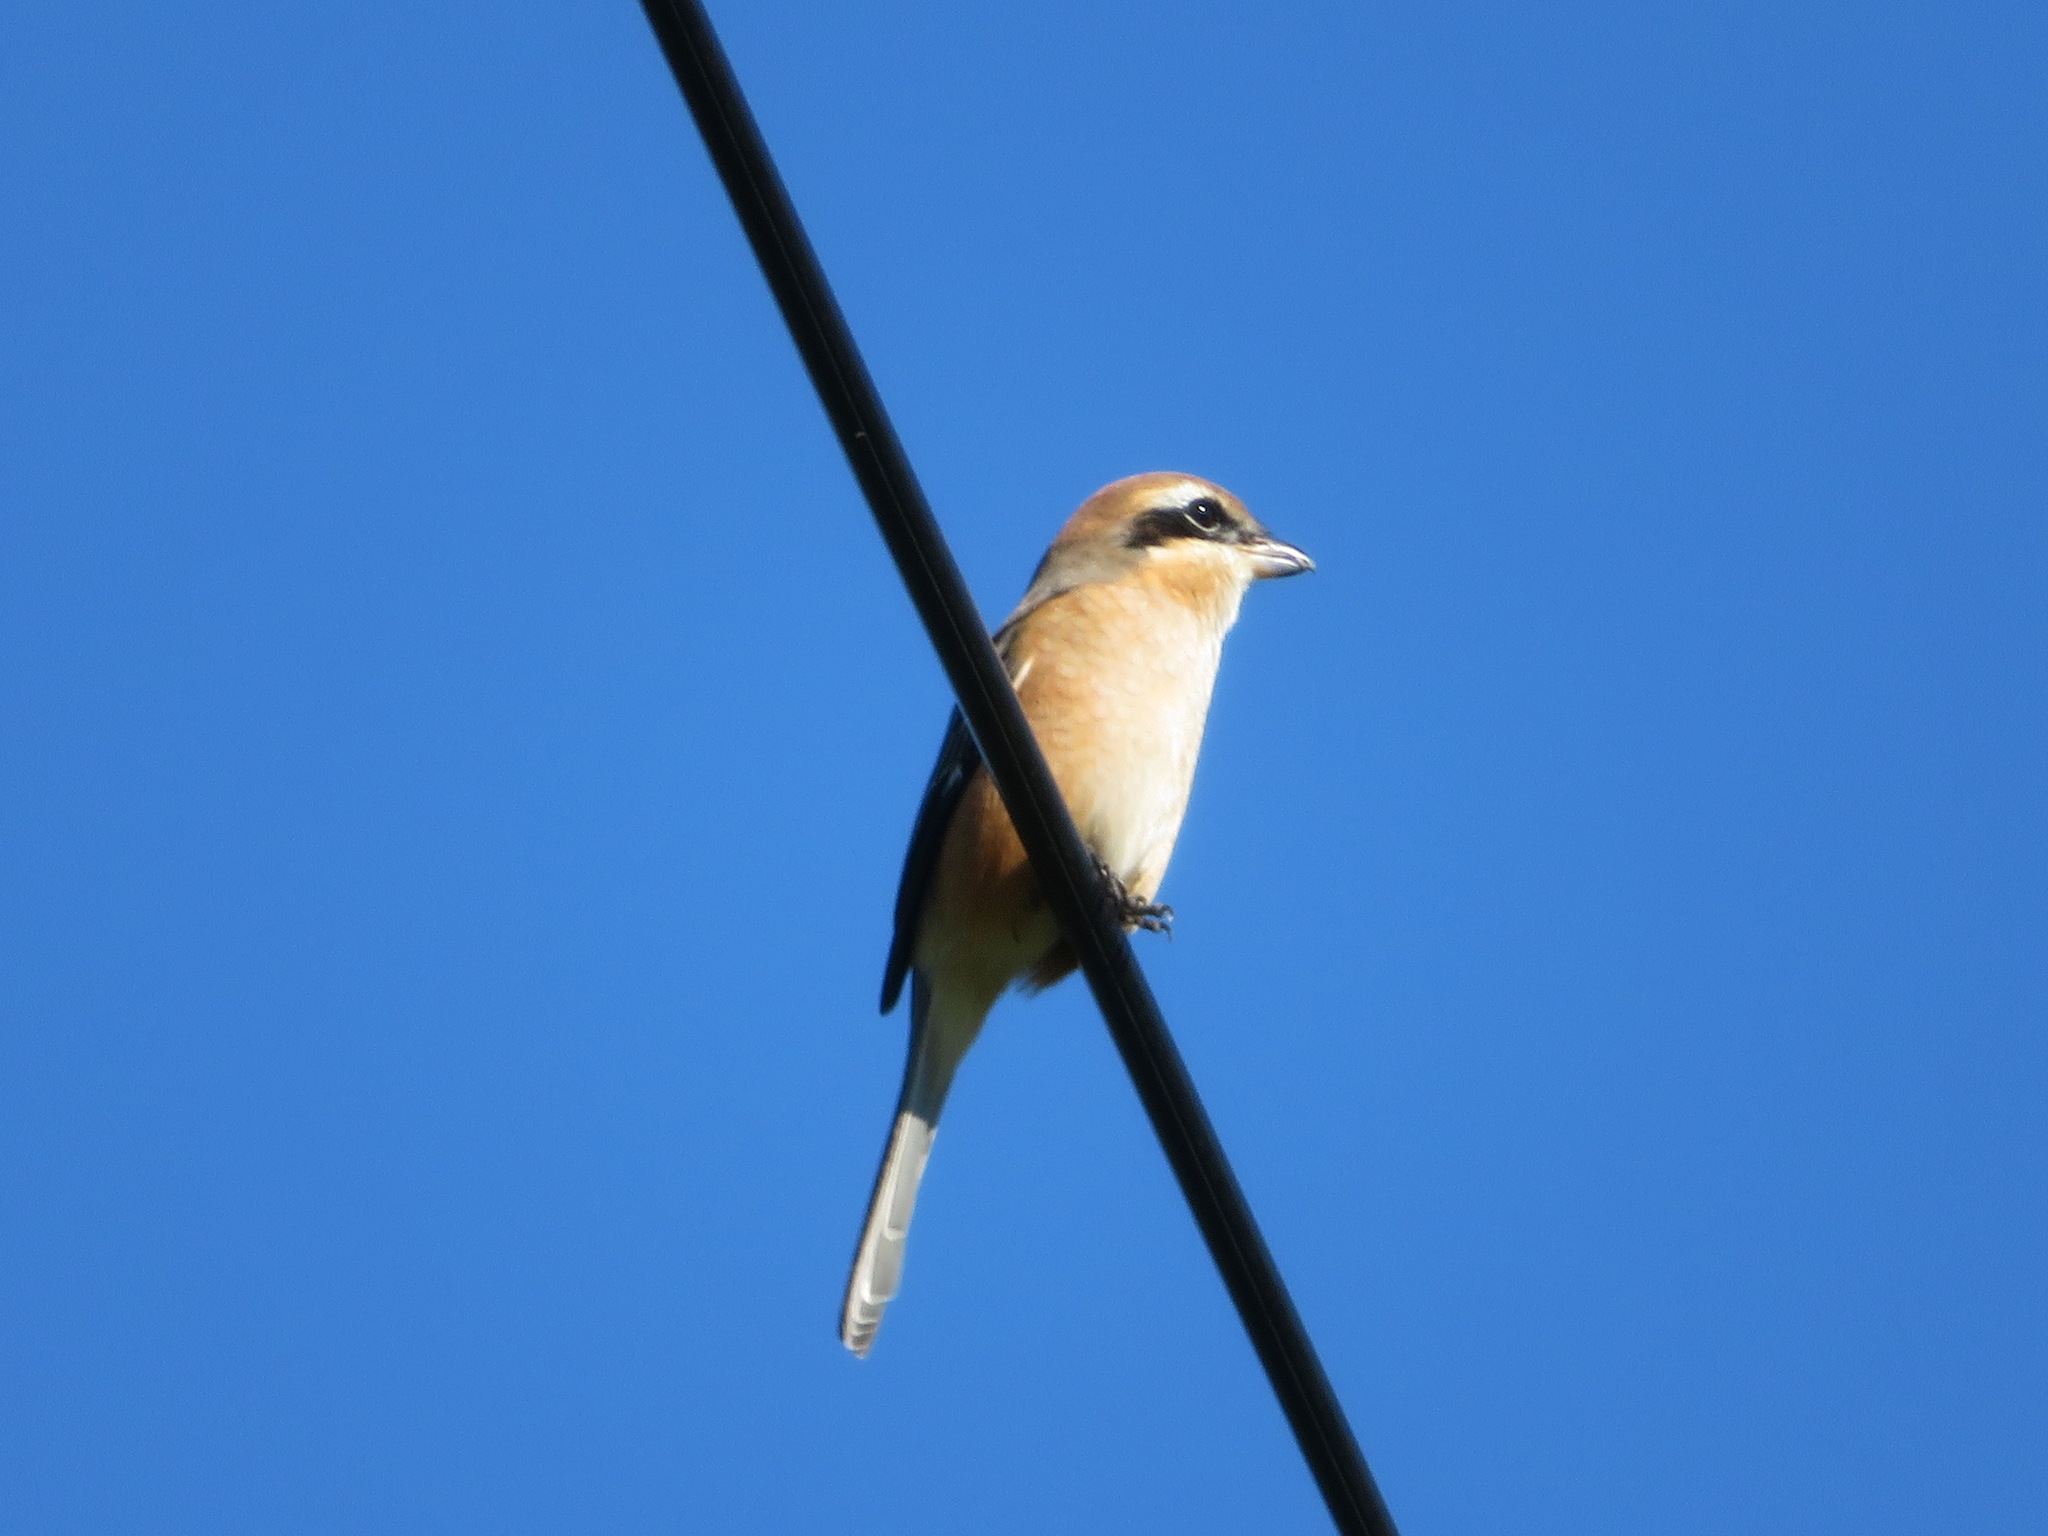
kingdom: Animalia
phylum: Chordata
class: Aves
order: Passeriformes
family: Laniidae
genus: Lanius
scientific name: Lanius bucephalus
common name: Bull-headed shrike
